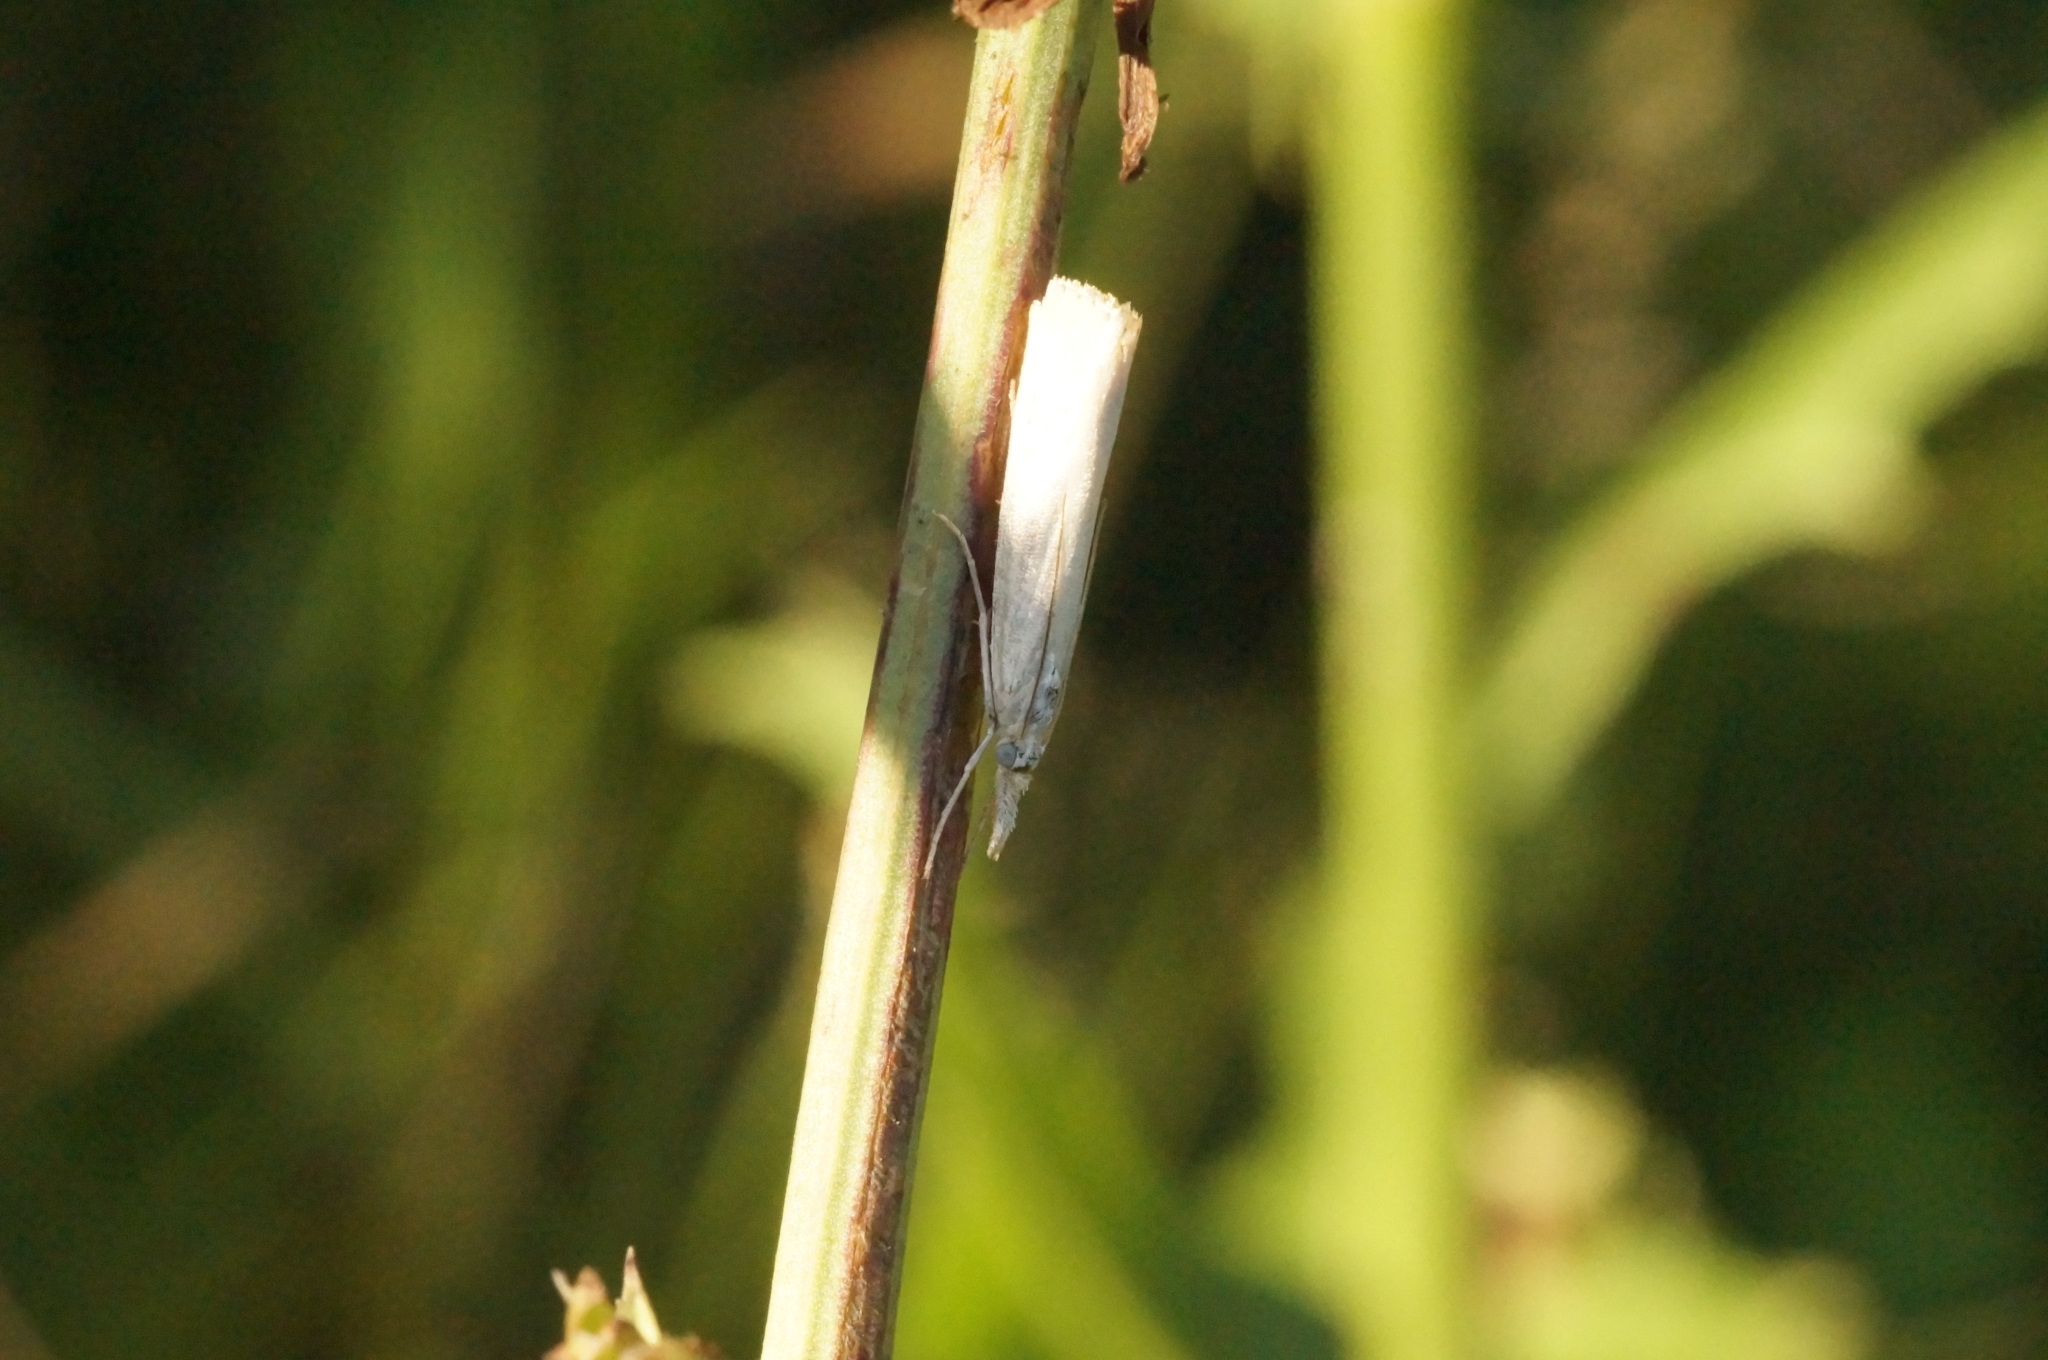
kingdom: Animalia
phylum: Arthropoda
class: Insecta
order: Lepidoptera
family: Crambidae
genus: Agriphila
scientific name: Agriphila straminella
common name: Straw grass-veneer
